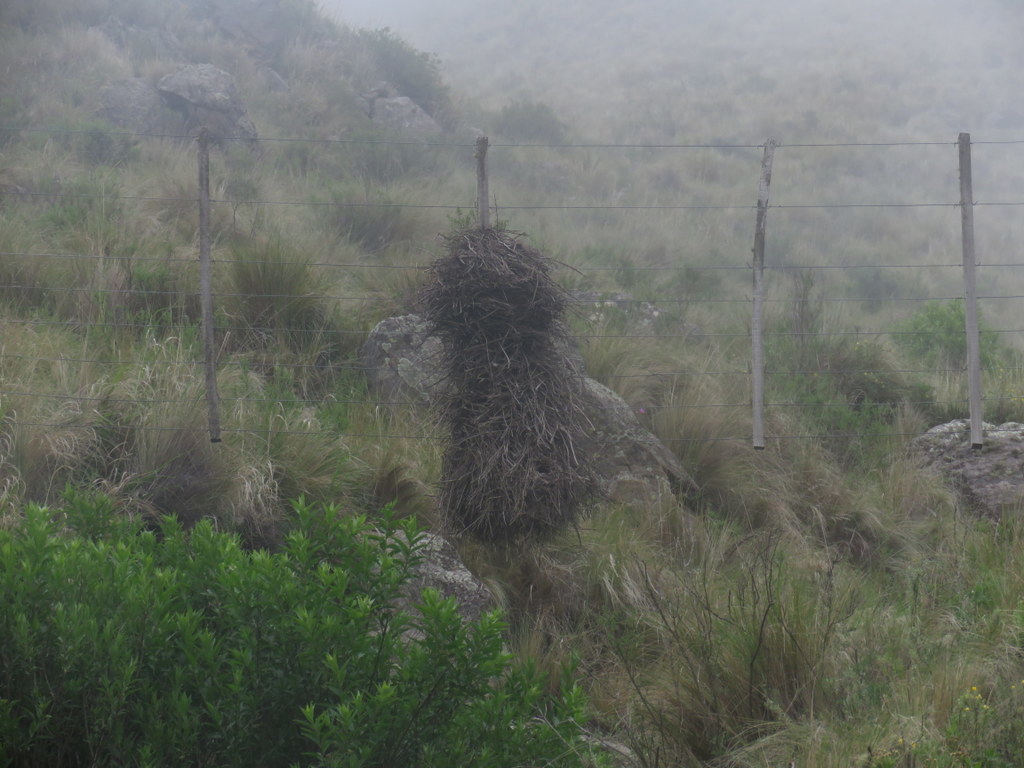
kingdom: Animalia
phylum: Chordata
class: Aves
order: Passeriformes
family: Furnariidae
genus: Phacellodomus
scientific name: Phacellodomus striaticeps
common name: Streak-fronted thornbird
